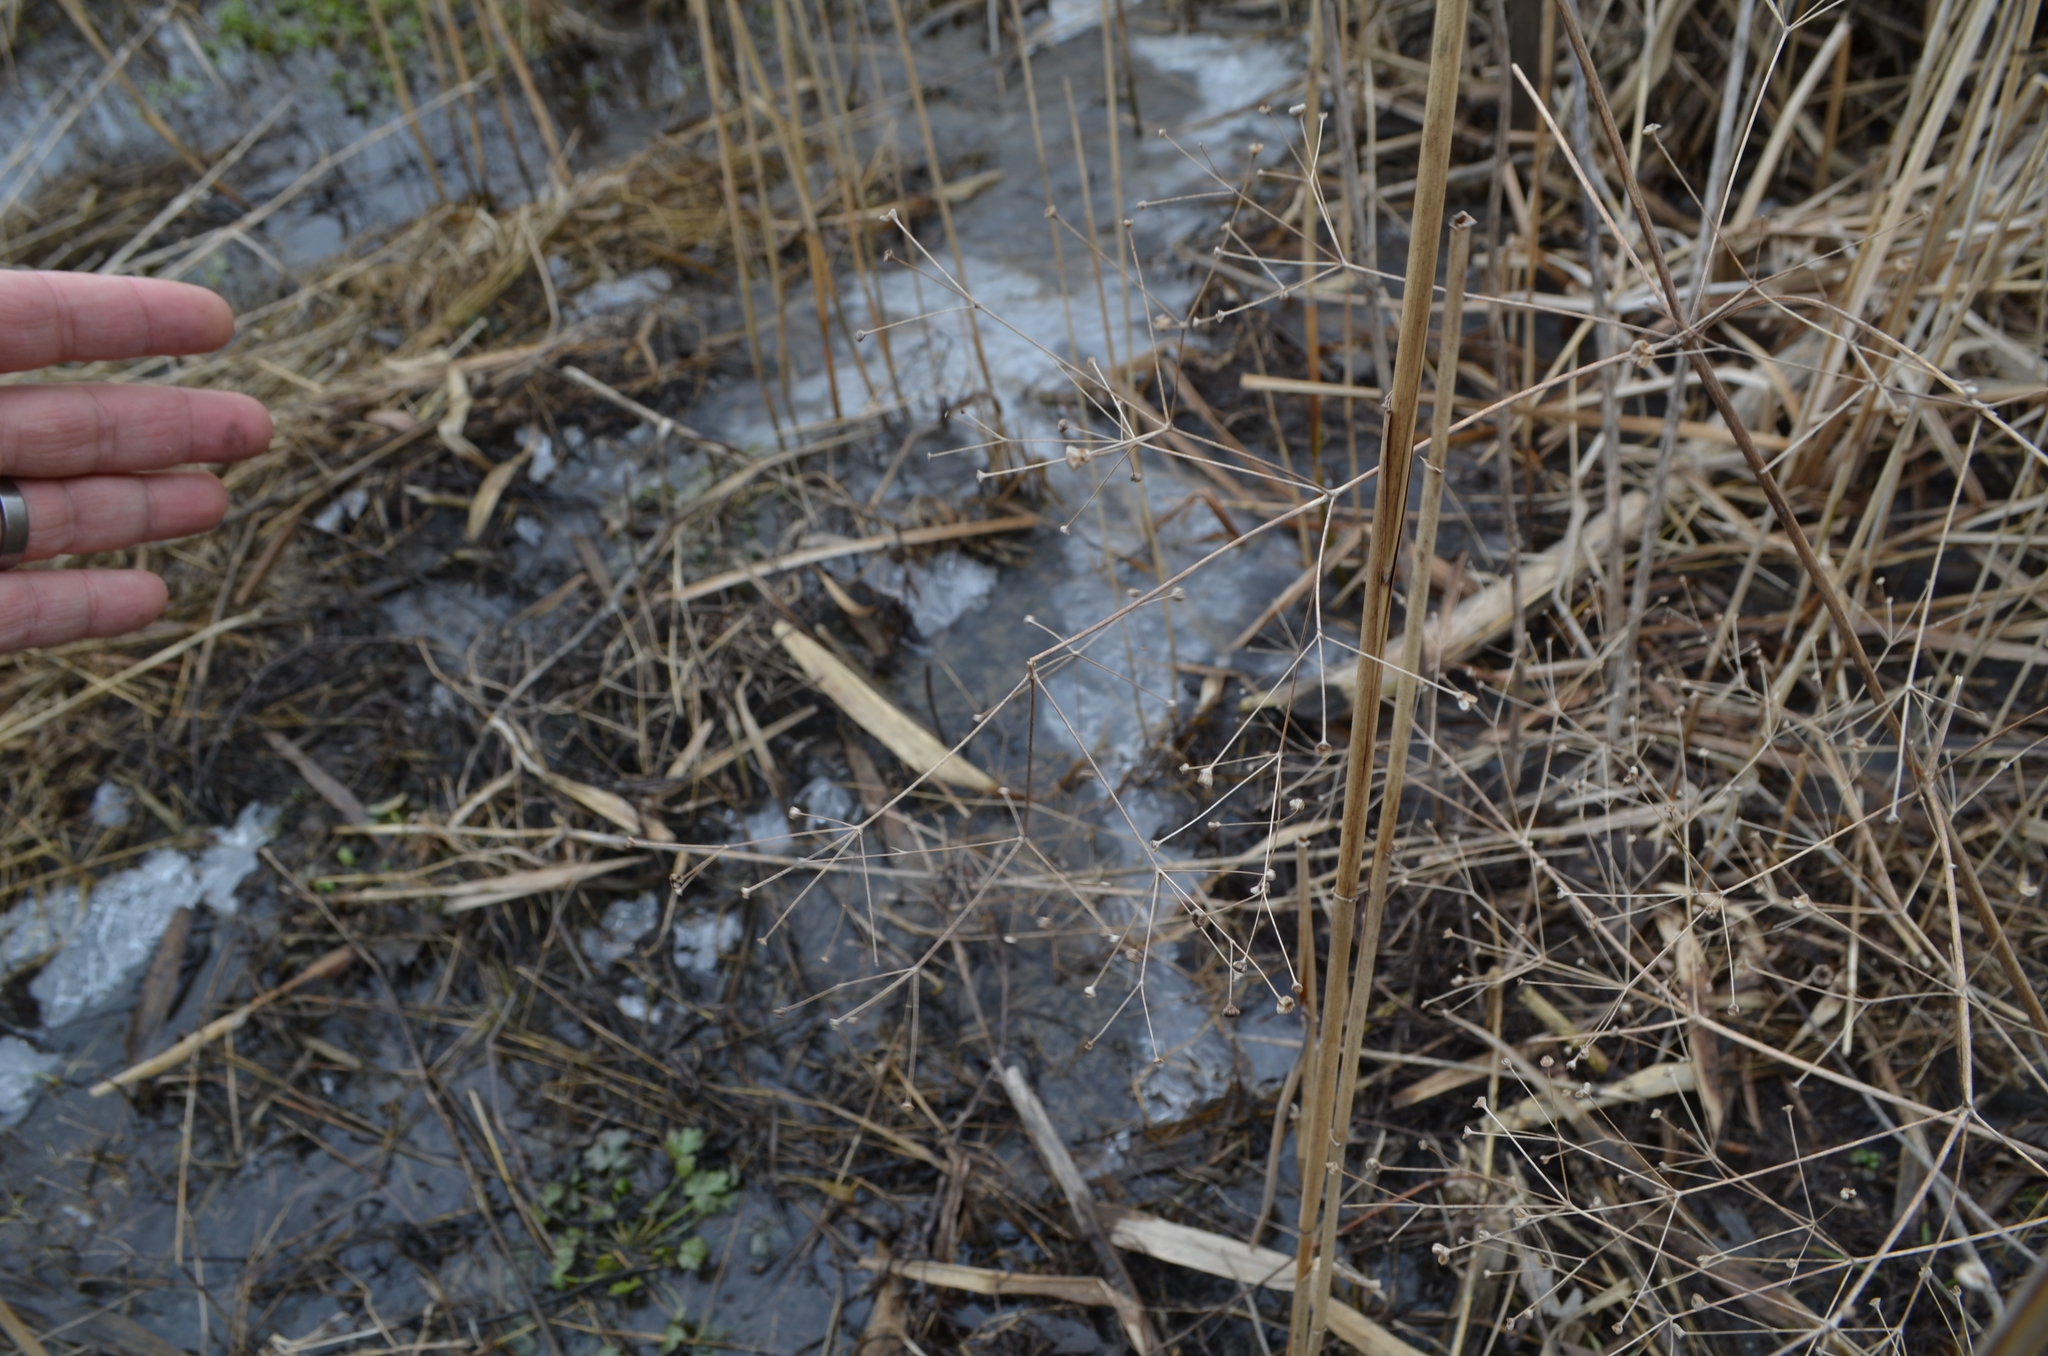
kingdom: Plantae
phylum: Tracheophyta
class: Liliopsida
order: Alismatales
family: Alismataceae
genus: Alisma
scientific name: Alisma subcordatum
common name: Southern water-plantain
